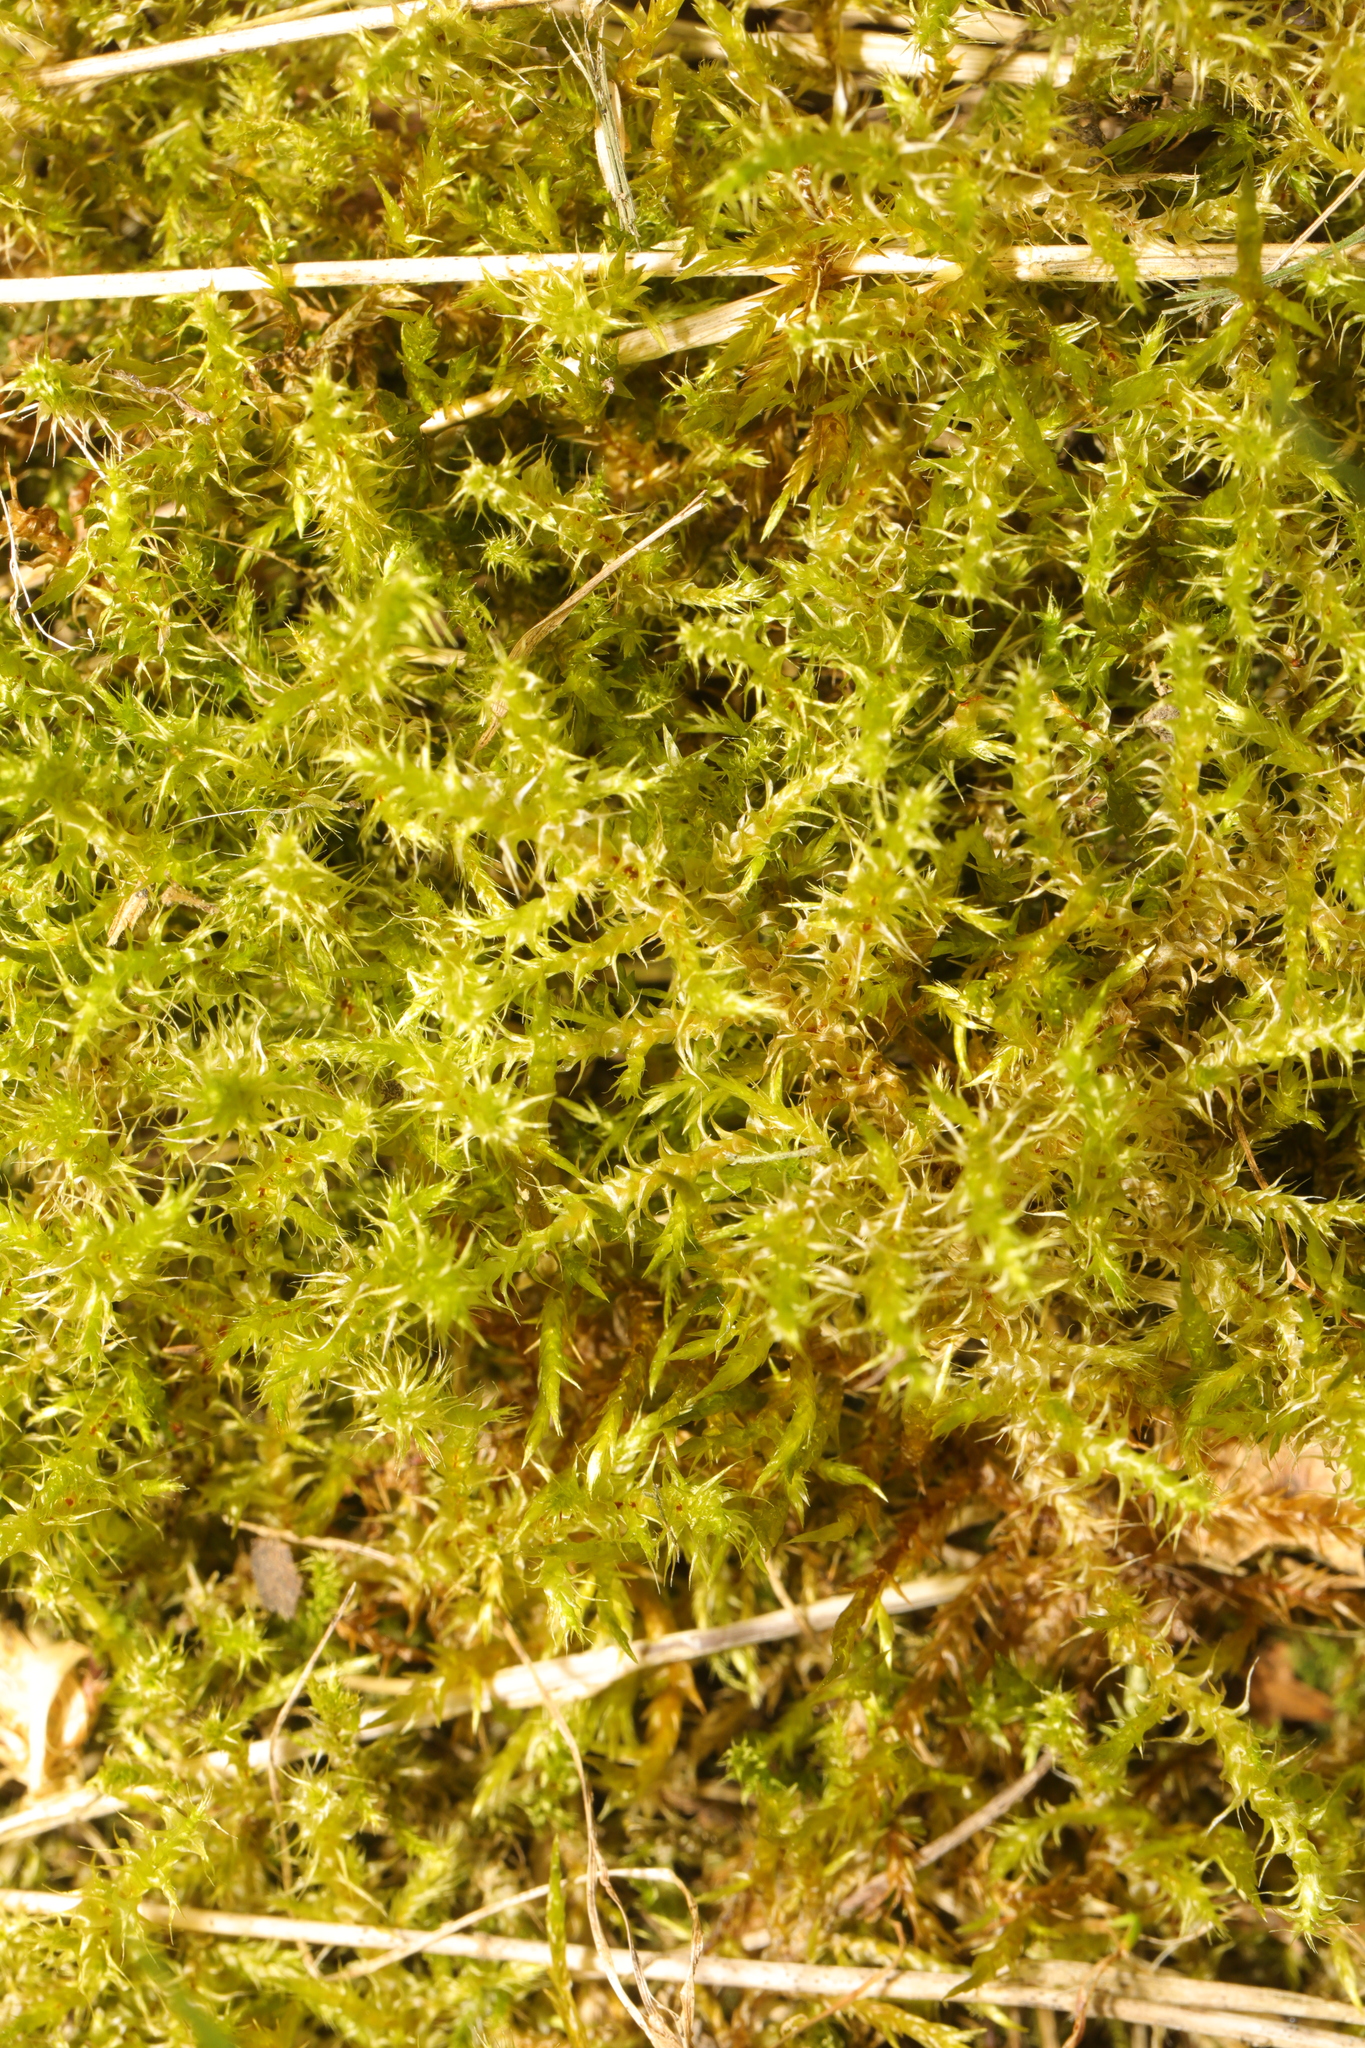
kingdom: Plantae
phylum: Bryophyta
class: Bryopsida
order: Hypnales
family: Hylocomiaceae
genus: Rhytidiadelphus
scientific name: Rhytidiadelphus squarrosus
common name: Springy turf-moss
